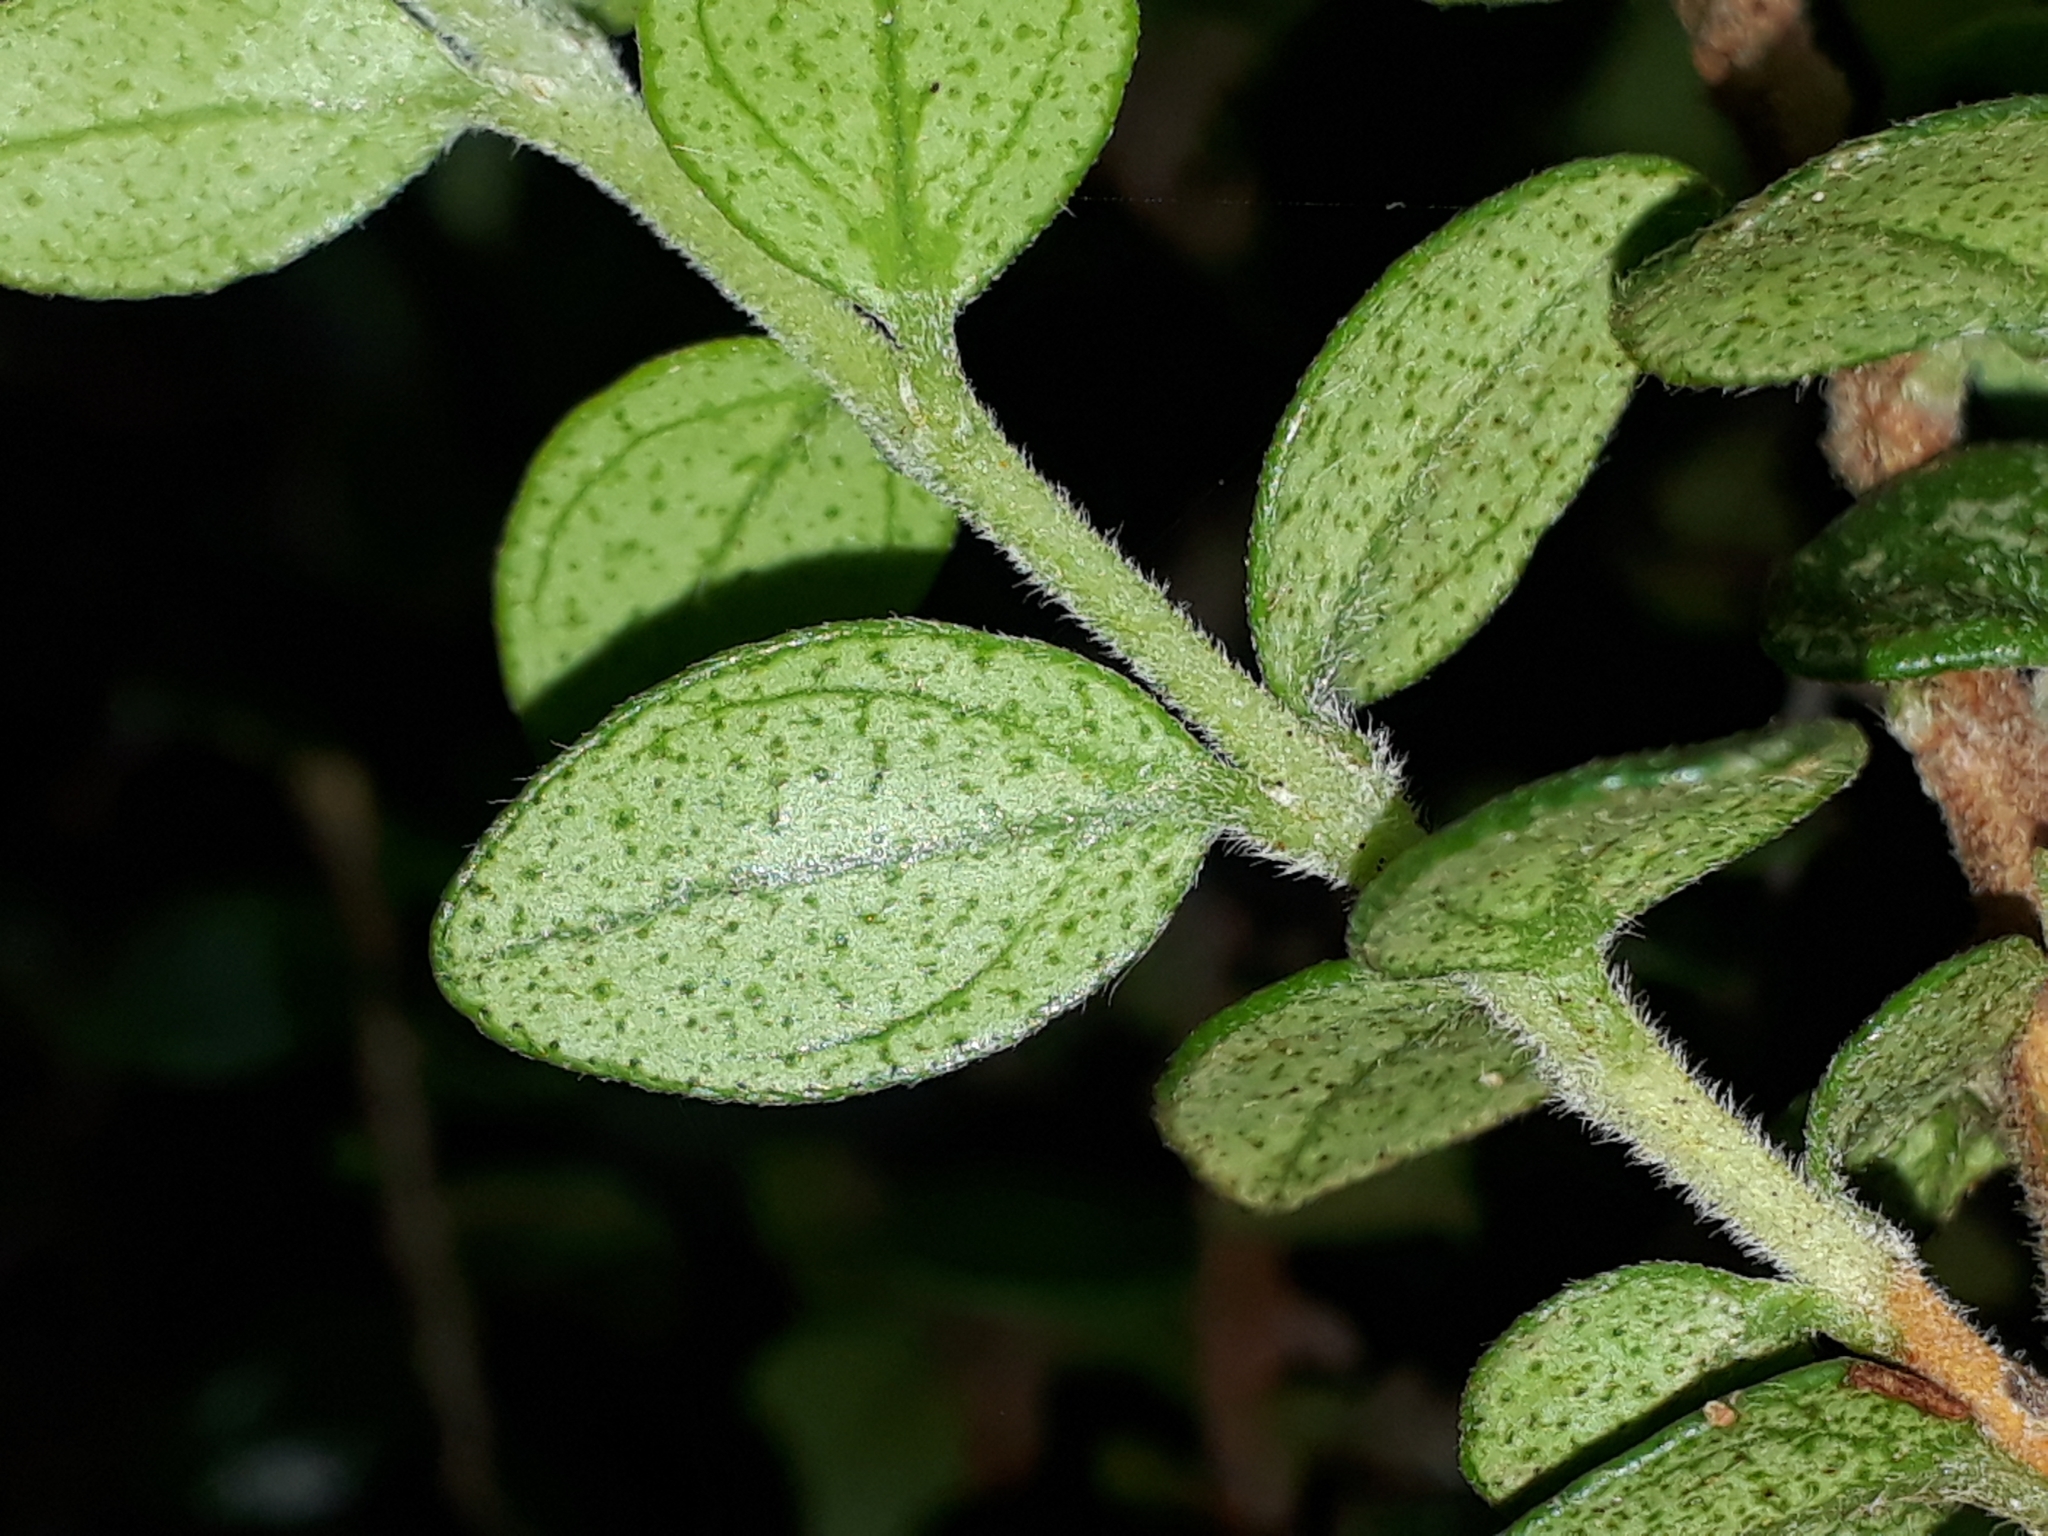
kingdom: Plantae
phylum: Tracheophyta
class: Magnoliopsida
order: Myrtales
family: Myrtaceae
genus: Metrosideros
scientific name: Metrosideros perforata
